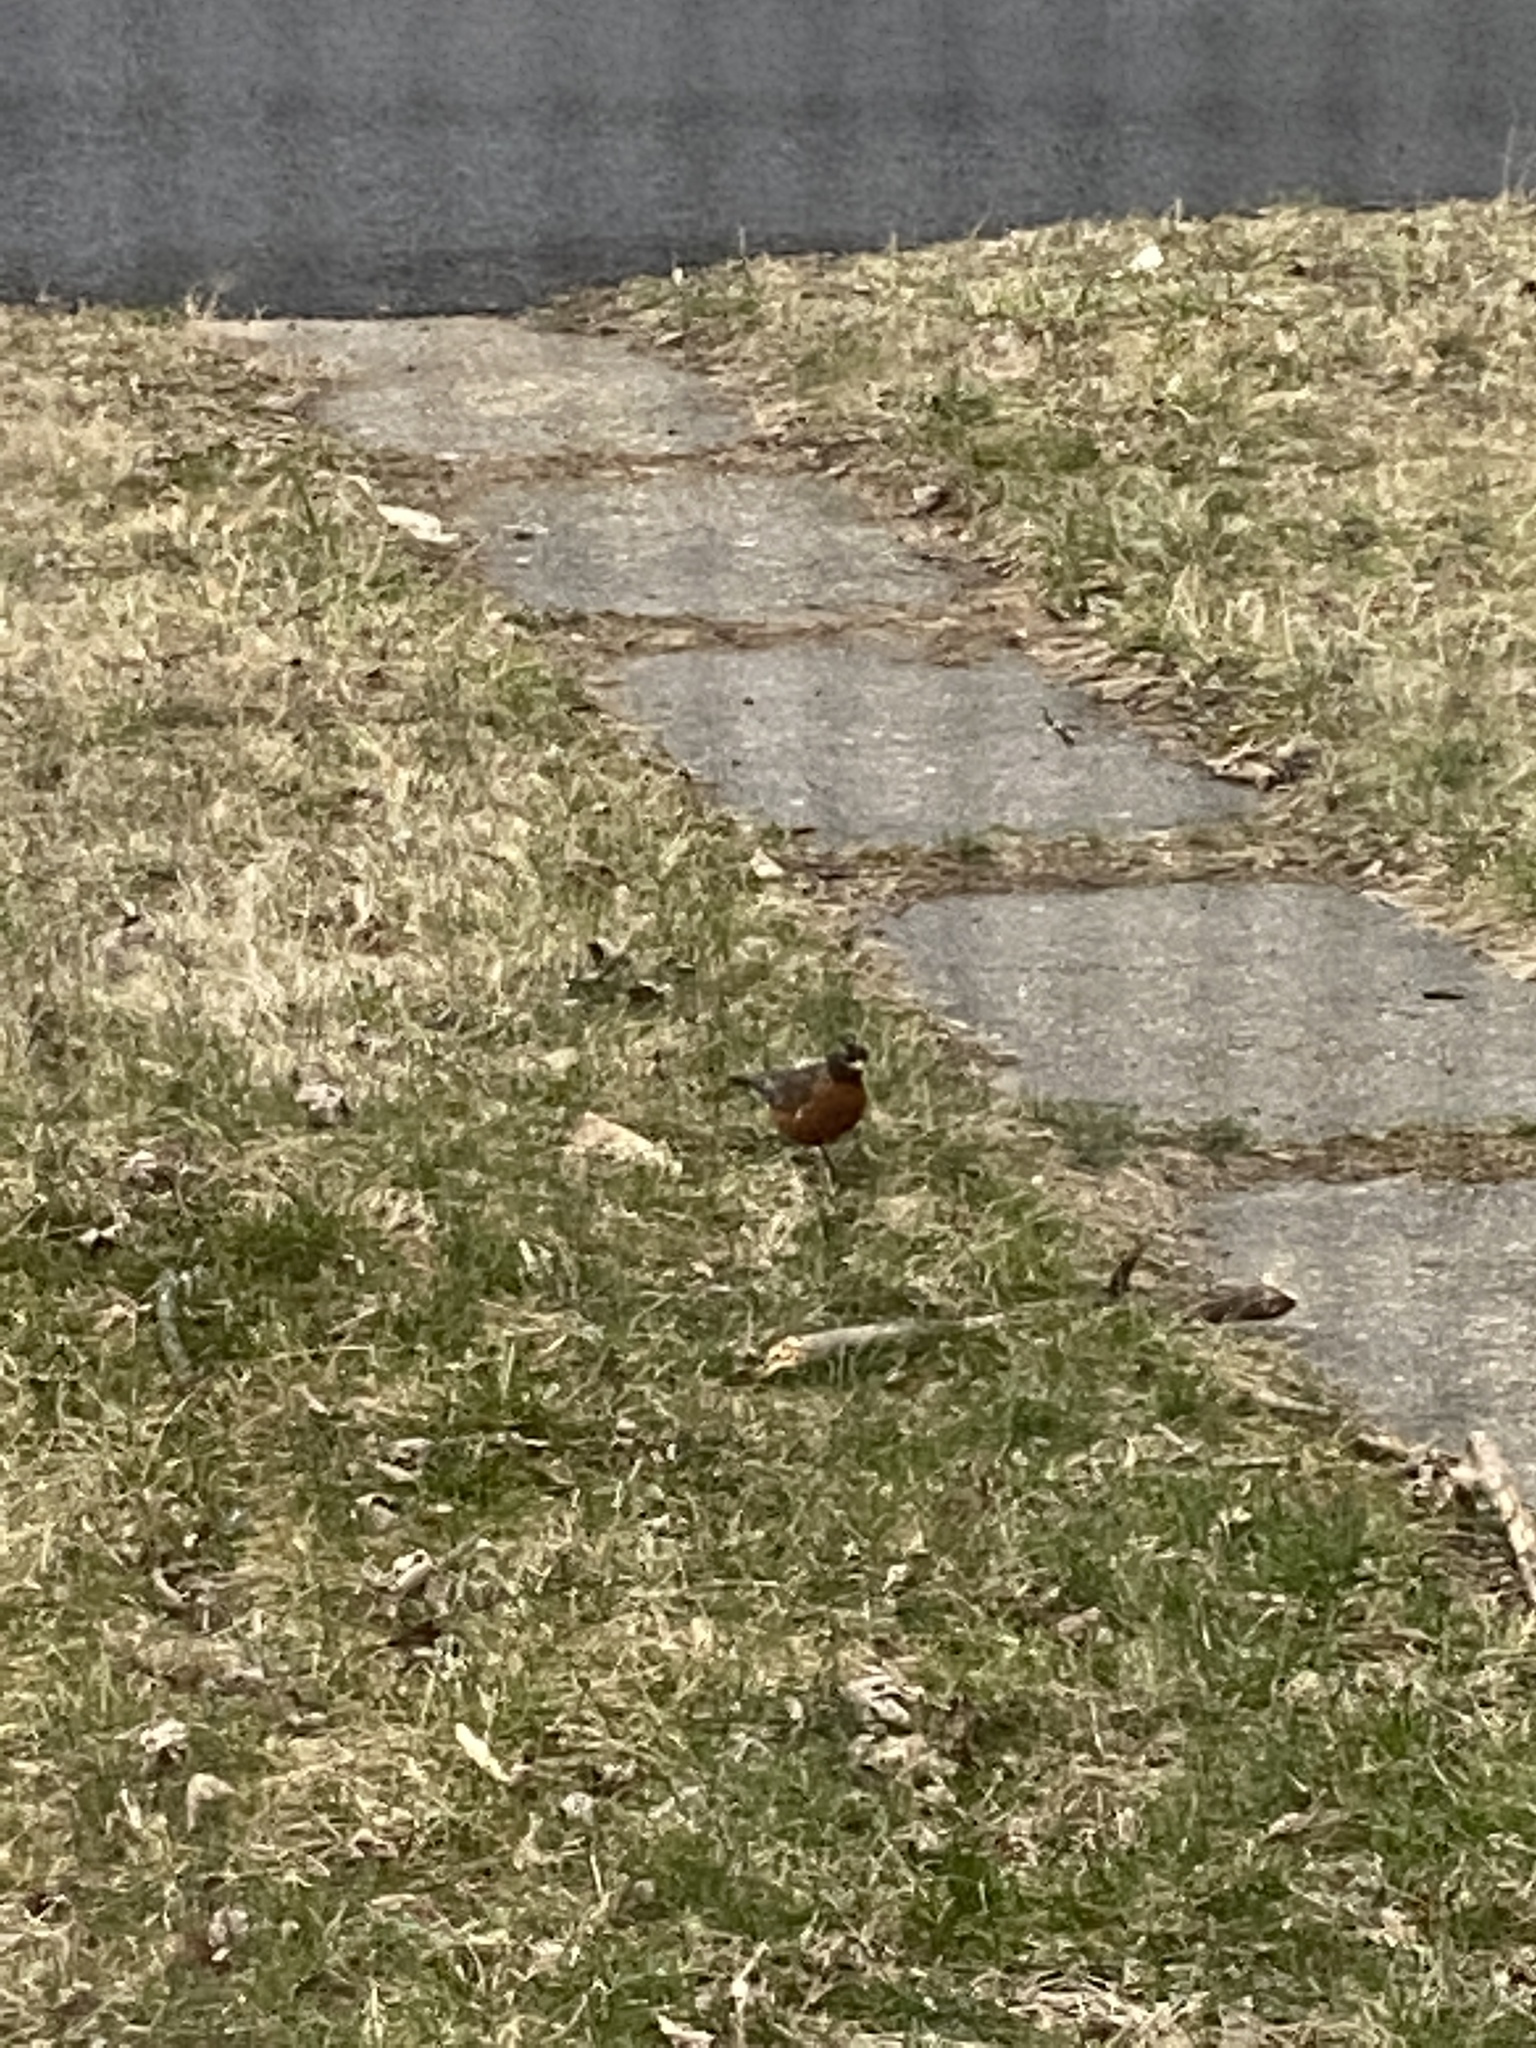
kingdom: Animalia
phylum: Chordata
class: Aves
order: Passeriformes
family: Turdidae
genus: Turdus
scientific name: Turdus migratorius
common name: American robin
